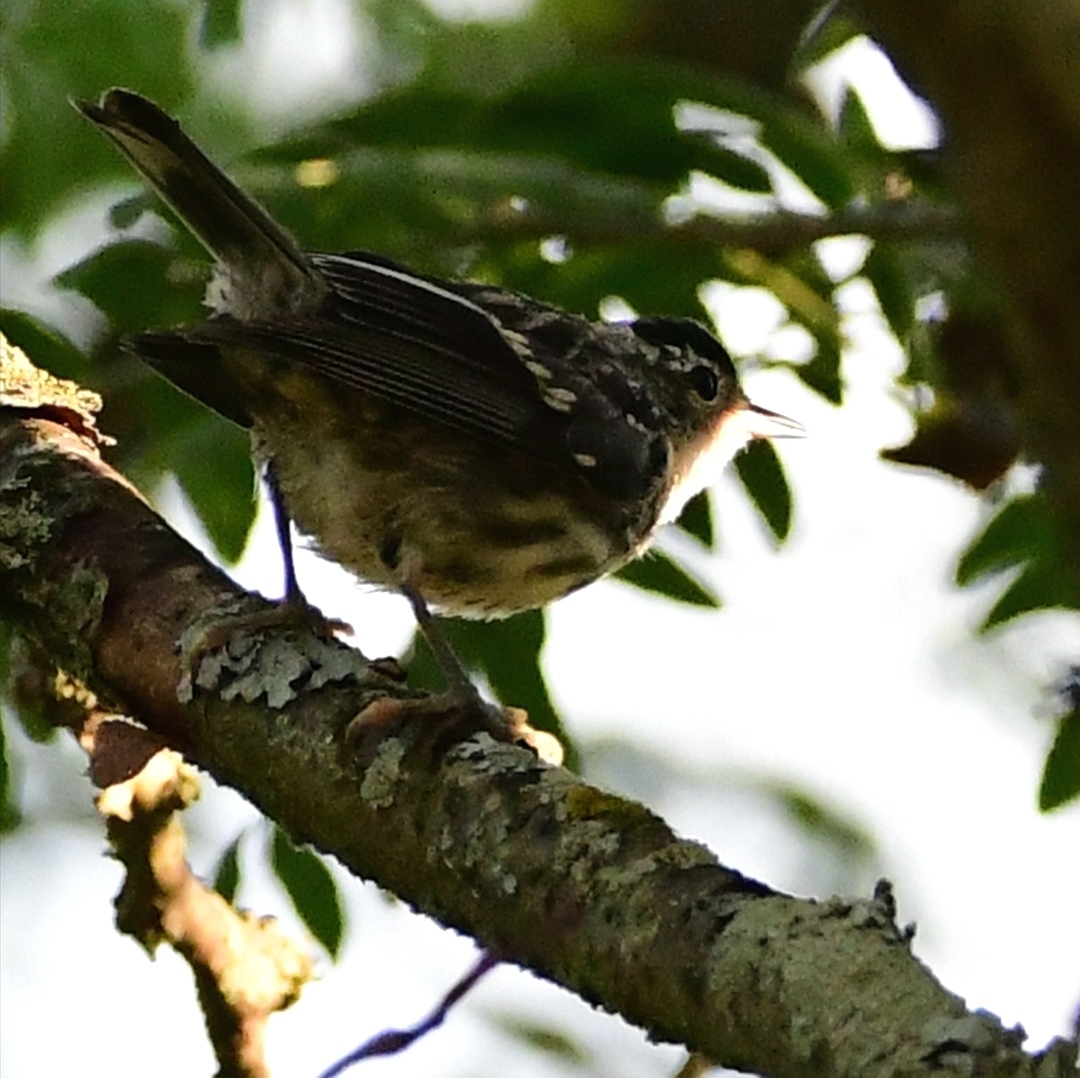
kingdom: Animalia
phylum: Chordata
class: Aves
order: Passeriformes
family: Parulidae
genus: Mniotilta
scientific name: Mniotilta varia
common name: Black-and-white warbler
